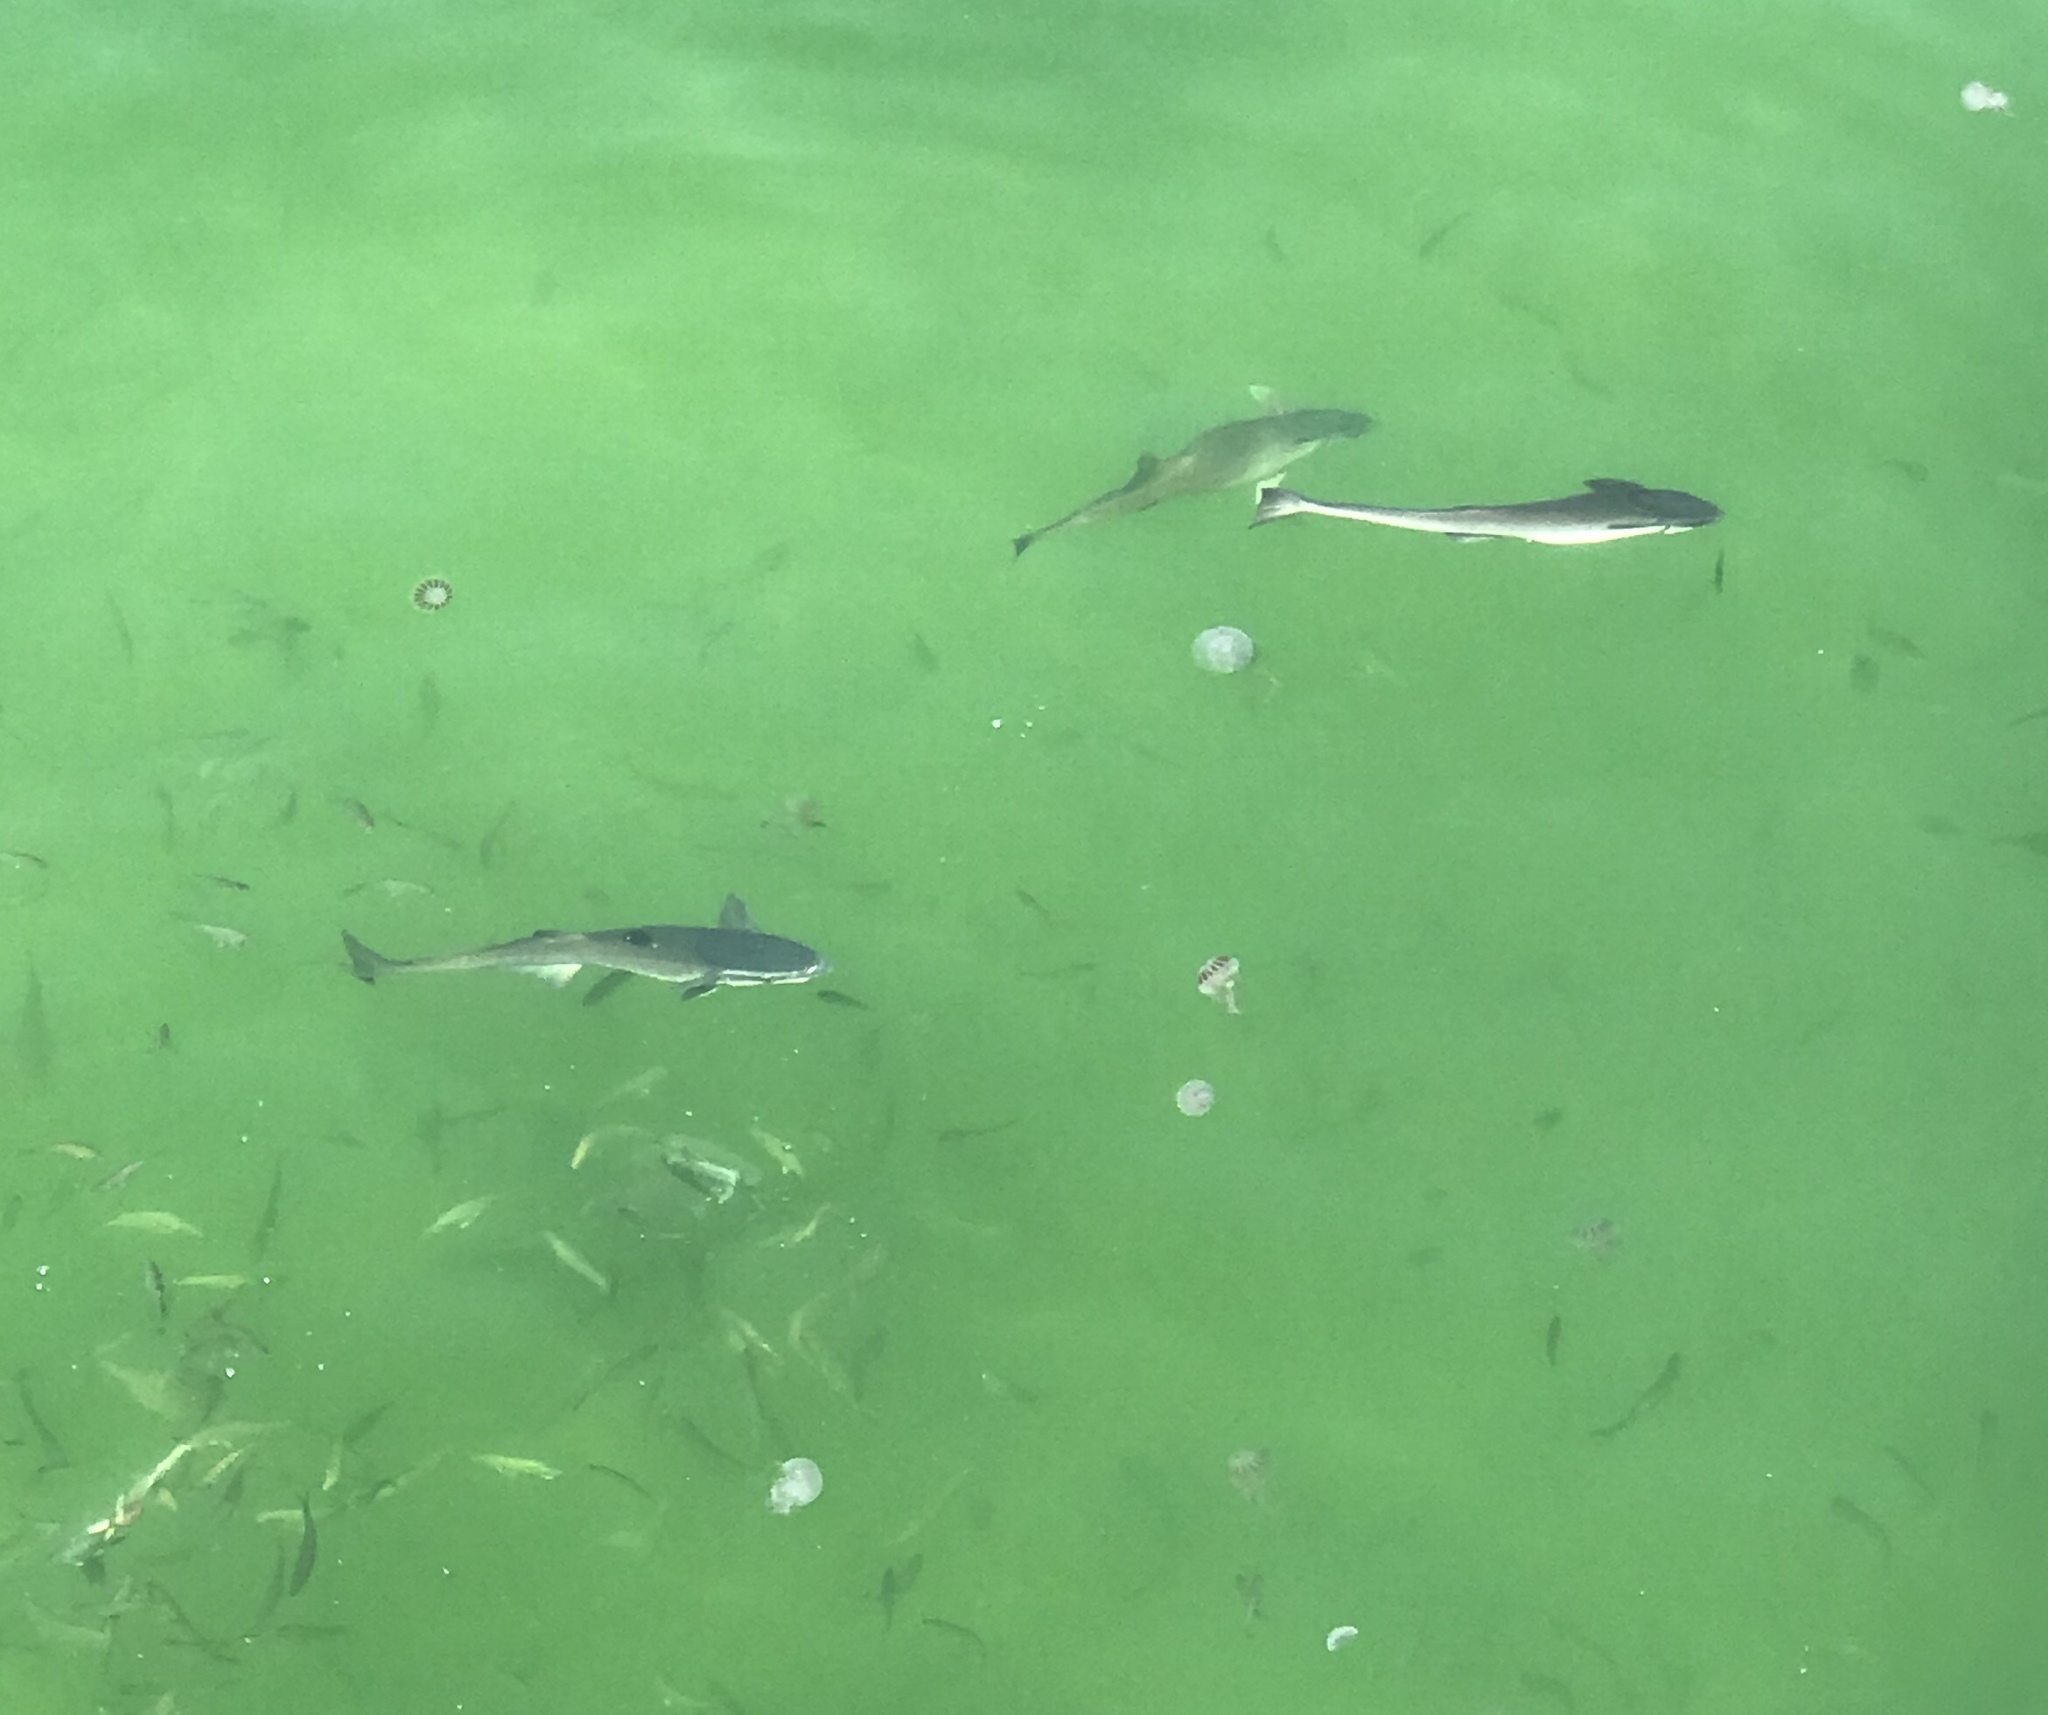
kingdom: Animalia
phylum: Chordata
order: Perciformes
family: Echeneidae
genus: Echeneis
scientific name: Echeneis naucrates
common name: Sharksucker
